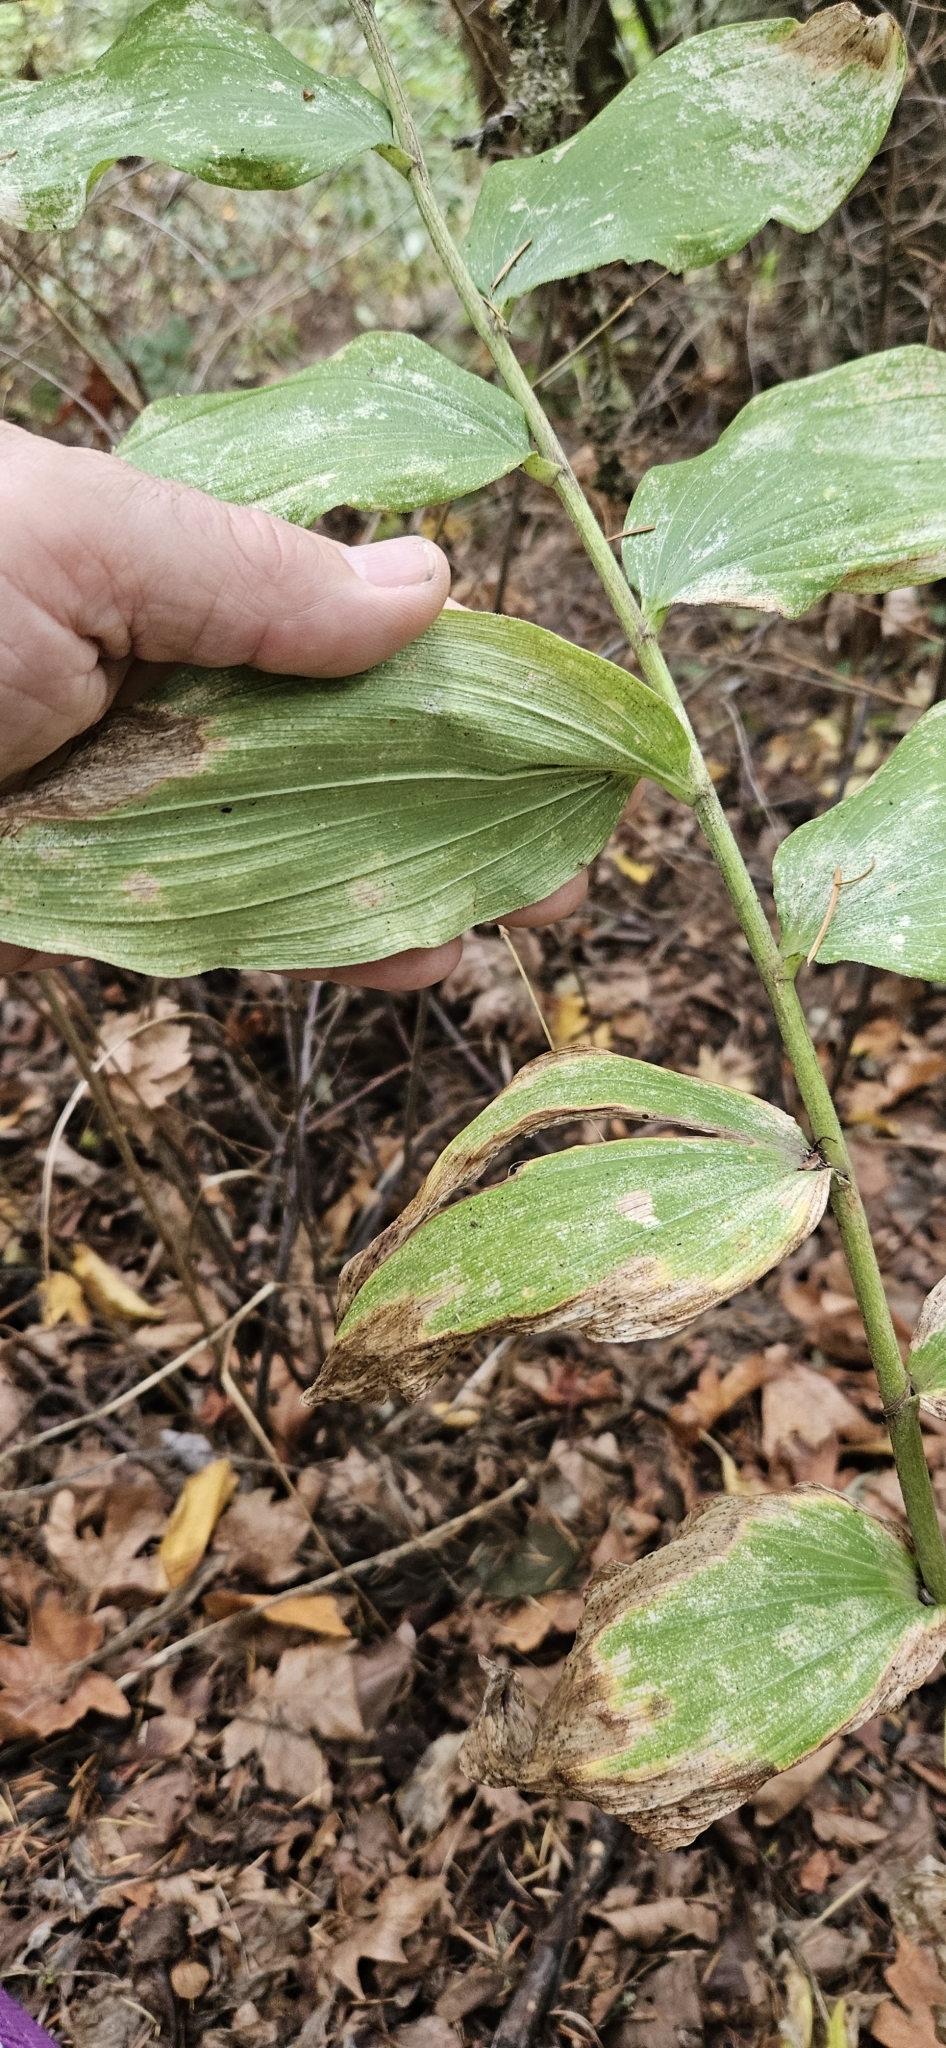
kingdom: Plantae
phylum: Tracheophyta
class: Liliopsida
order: Asparagales
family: Asparagaceae
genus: Maianthemum
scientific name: Maianthemum racemosum
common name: False spikenard
